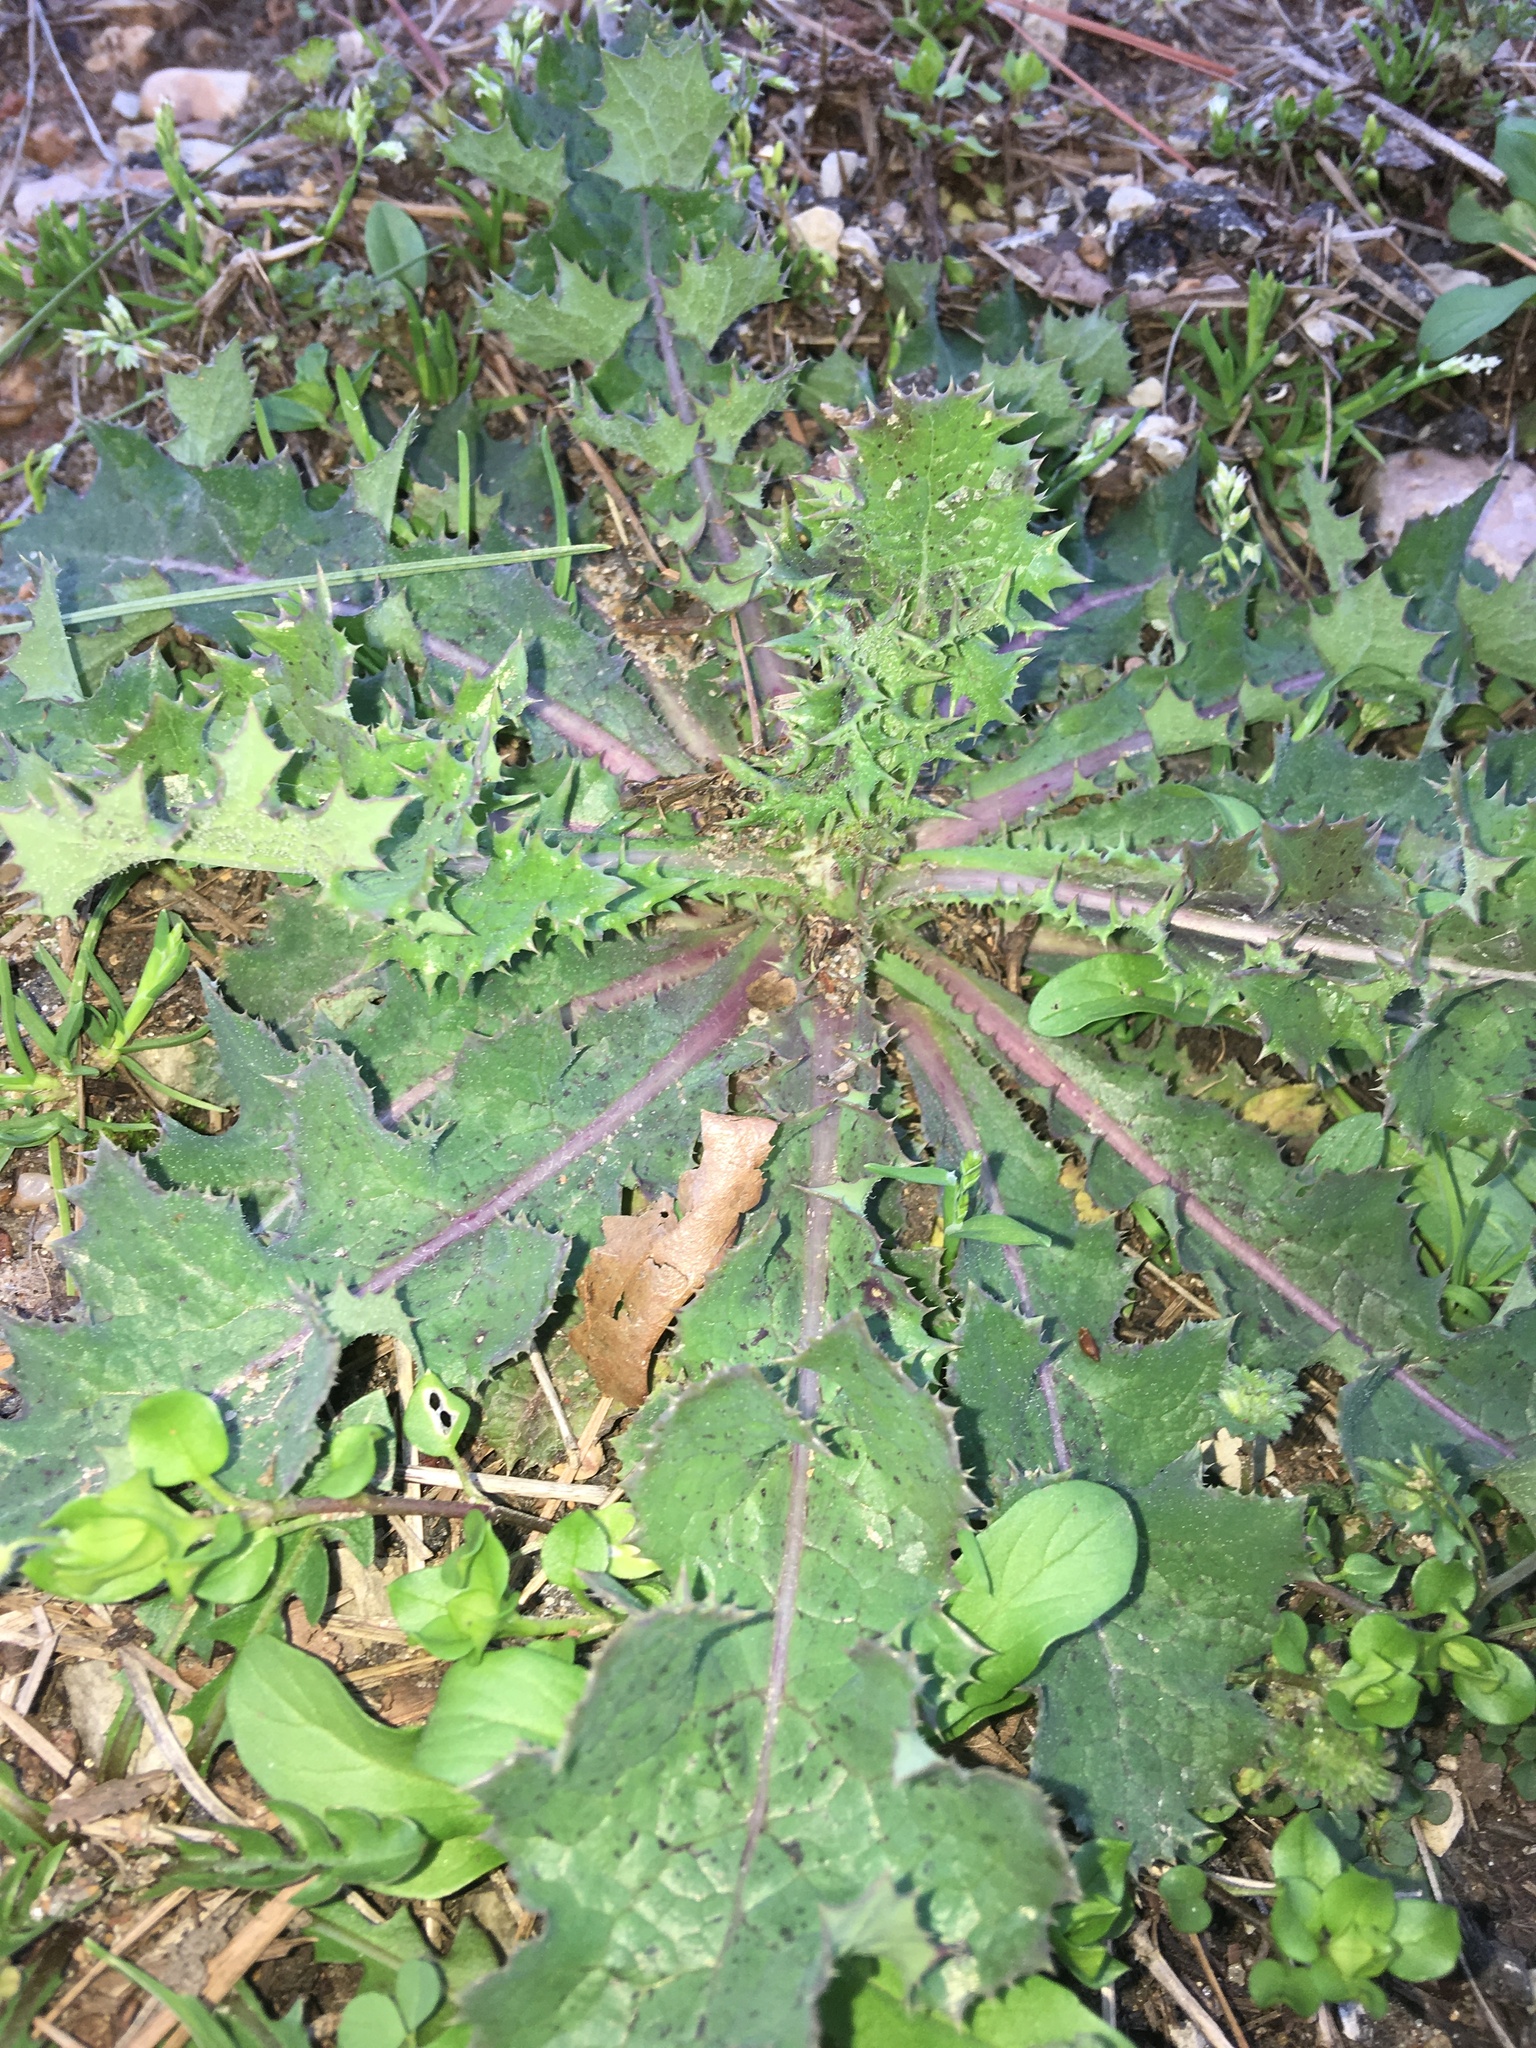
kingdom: Plantae
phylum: Tracheophyta
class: Magnoliopsida
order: Asterales
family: Asteraceae
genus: Sonchus
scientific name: Sonchus asper
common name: Prickly sow-thistle
